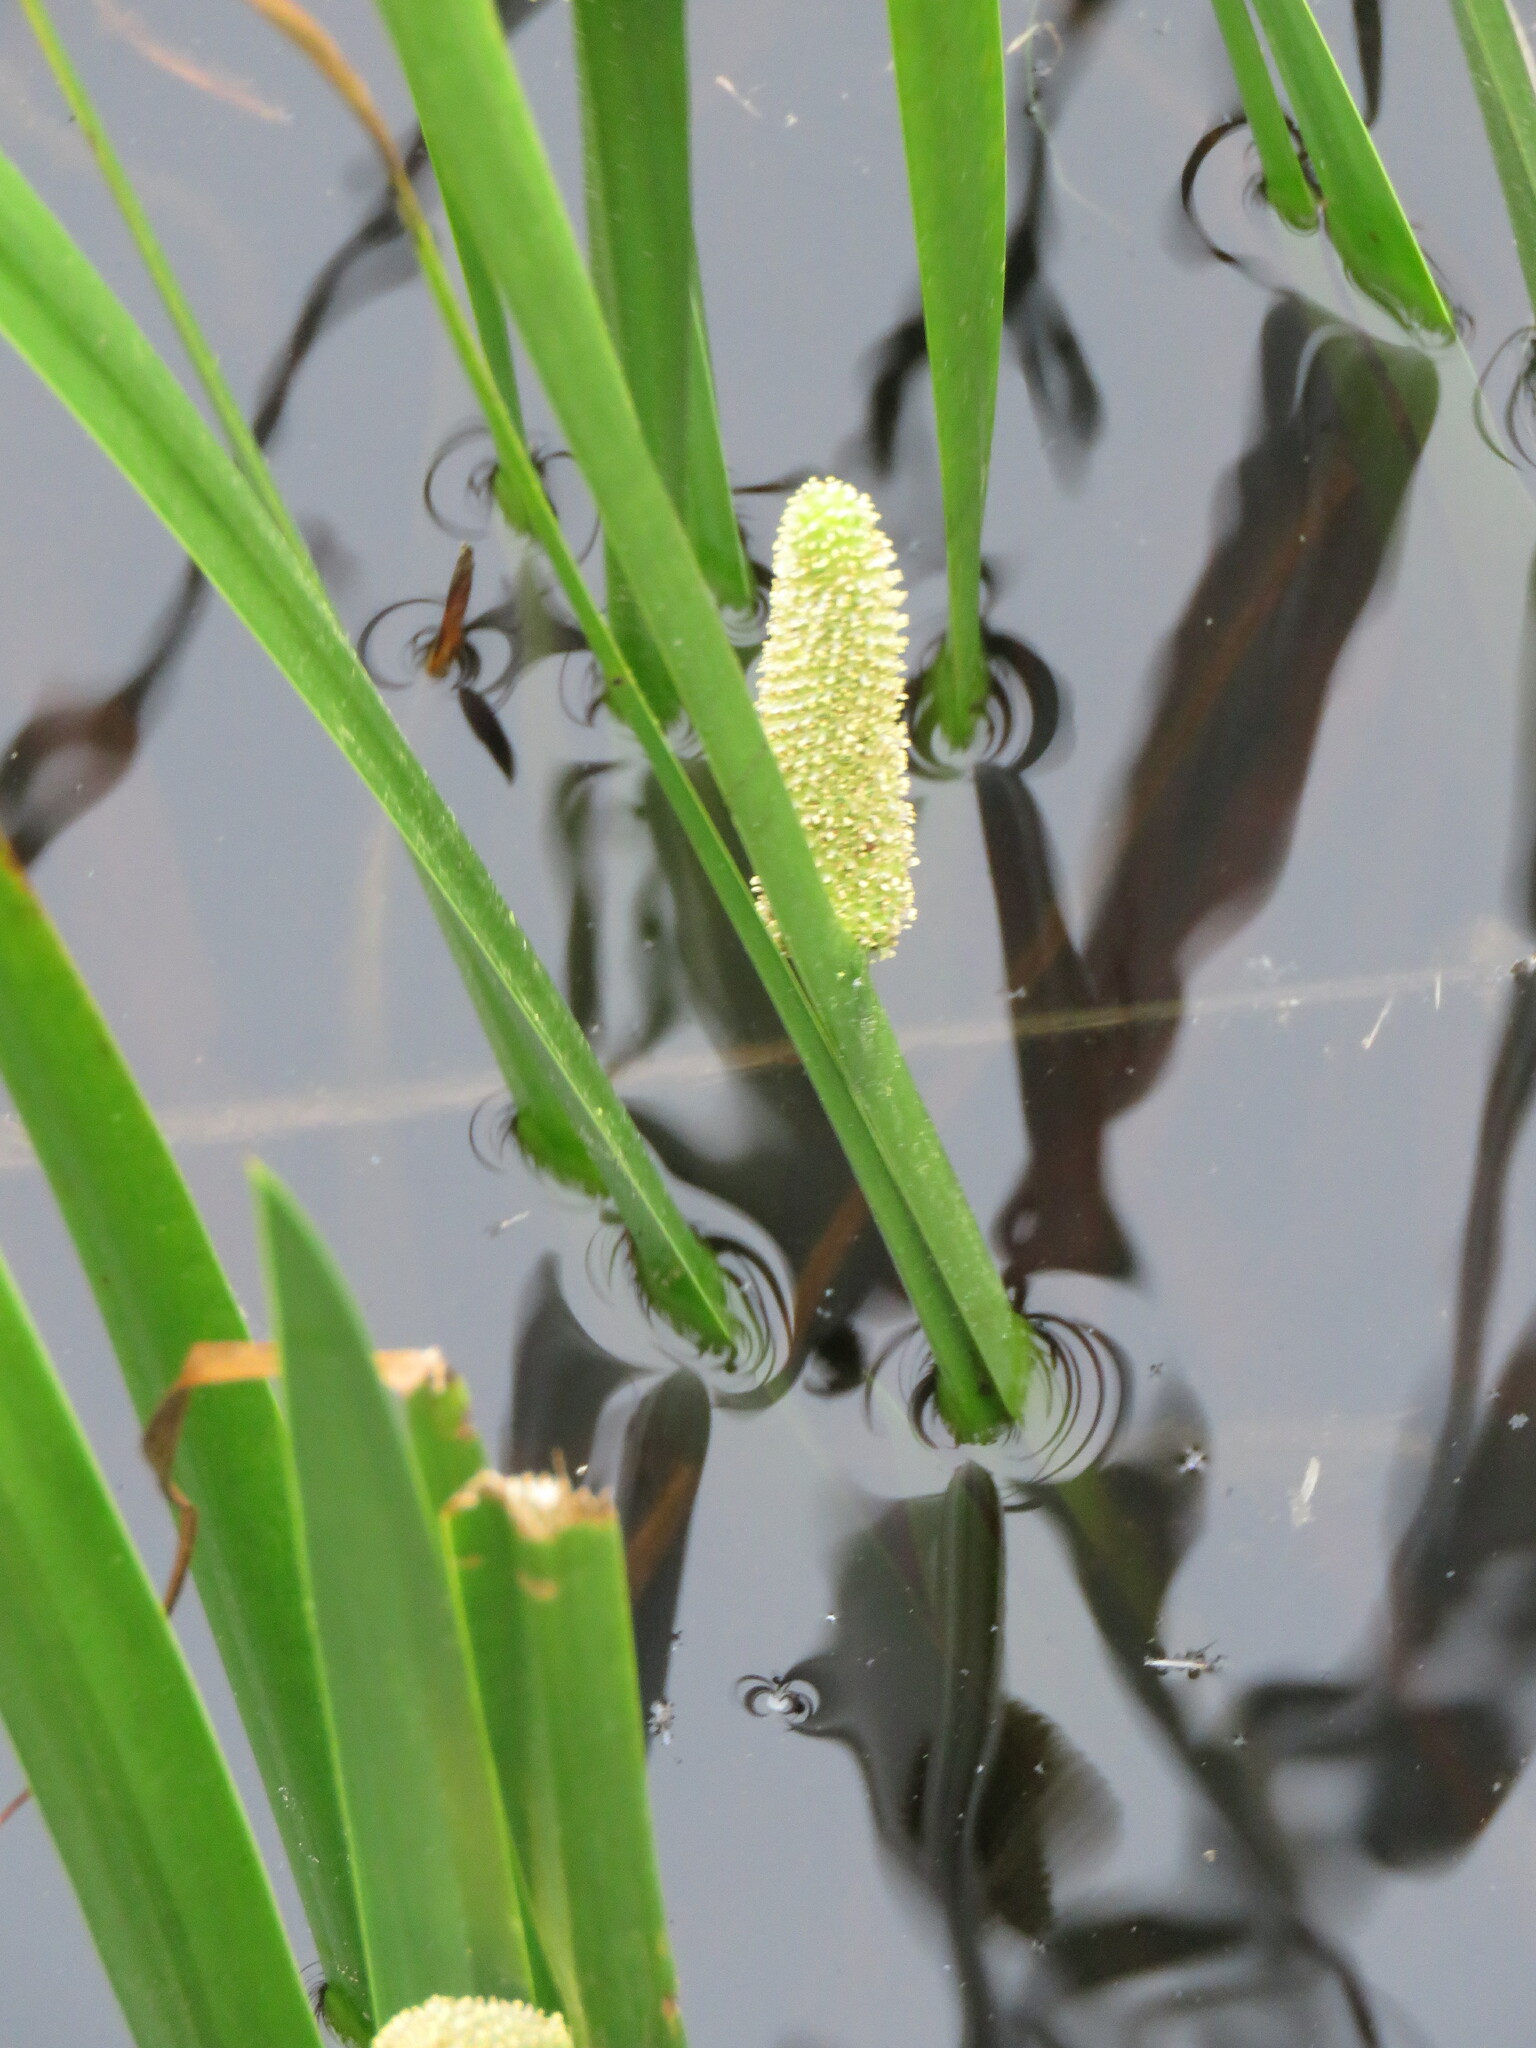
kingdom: Plantae
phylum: Tracheophyta
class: Liliopsida
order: Acorales
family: Acoraceae
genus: Acorus
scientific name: Acorus calamus
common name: Sweet-flag
